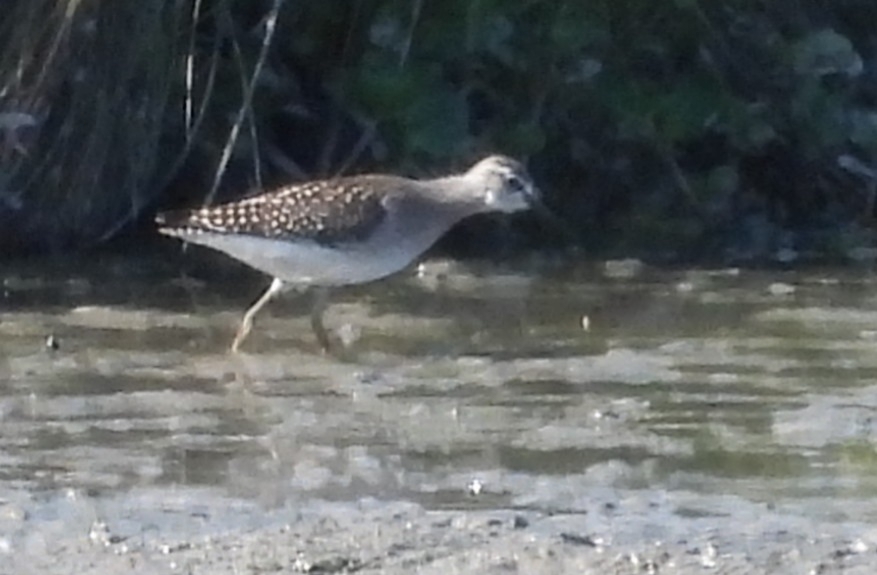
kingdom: Animalia
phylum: Chordata
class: Aves
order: Charadriiformes
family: Scolopacidae
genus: Tringa
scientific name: Tringa glareola
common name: Wood sandpiper
